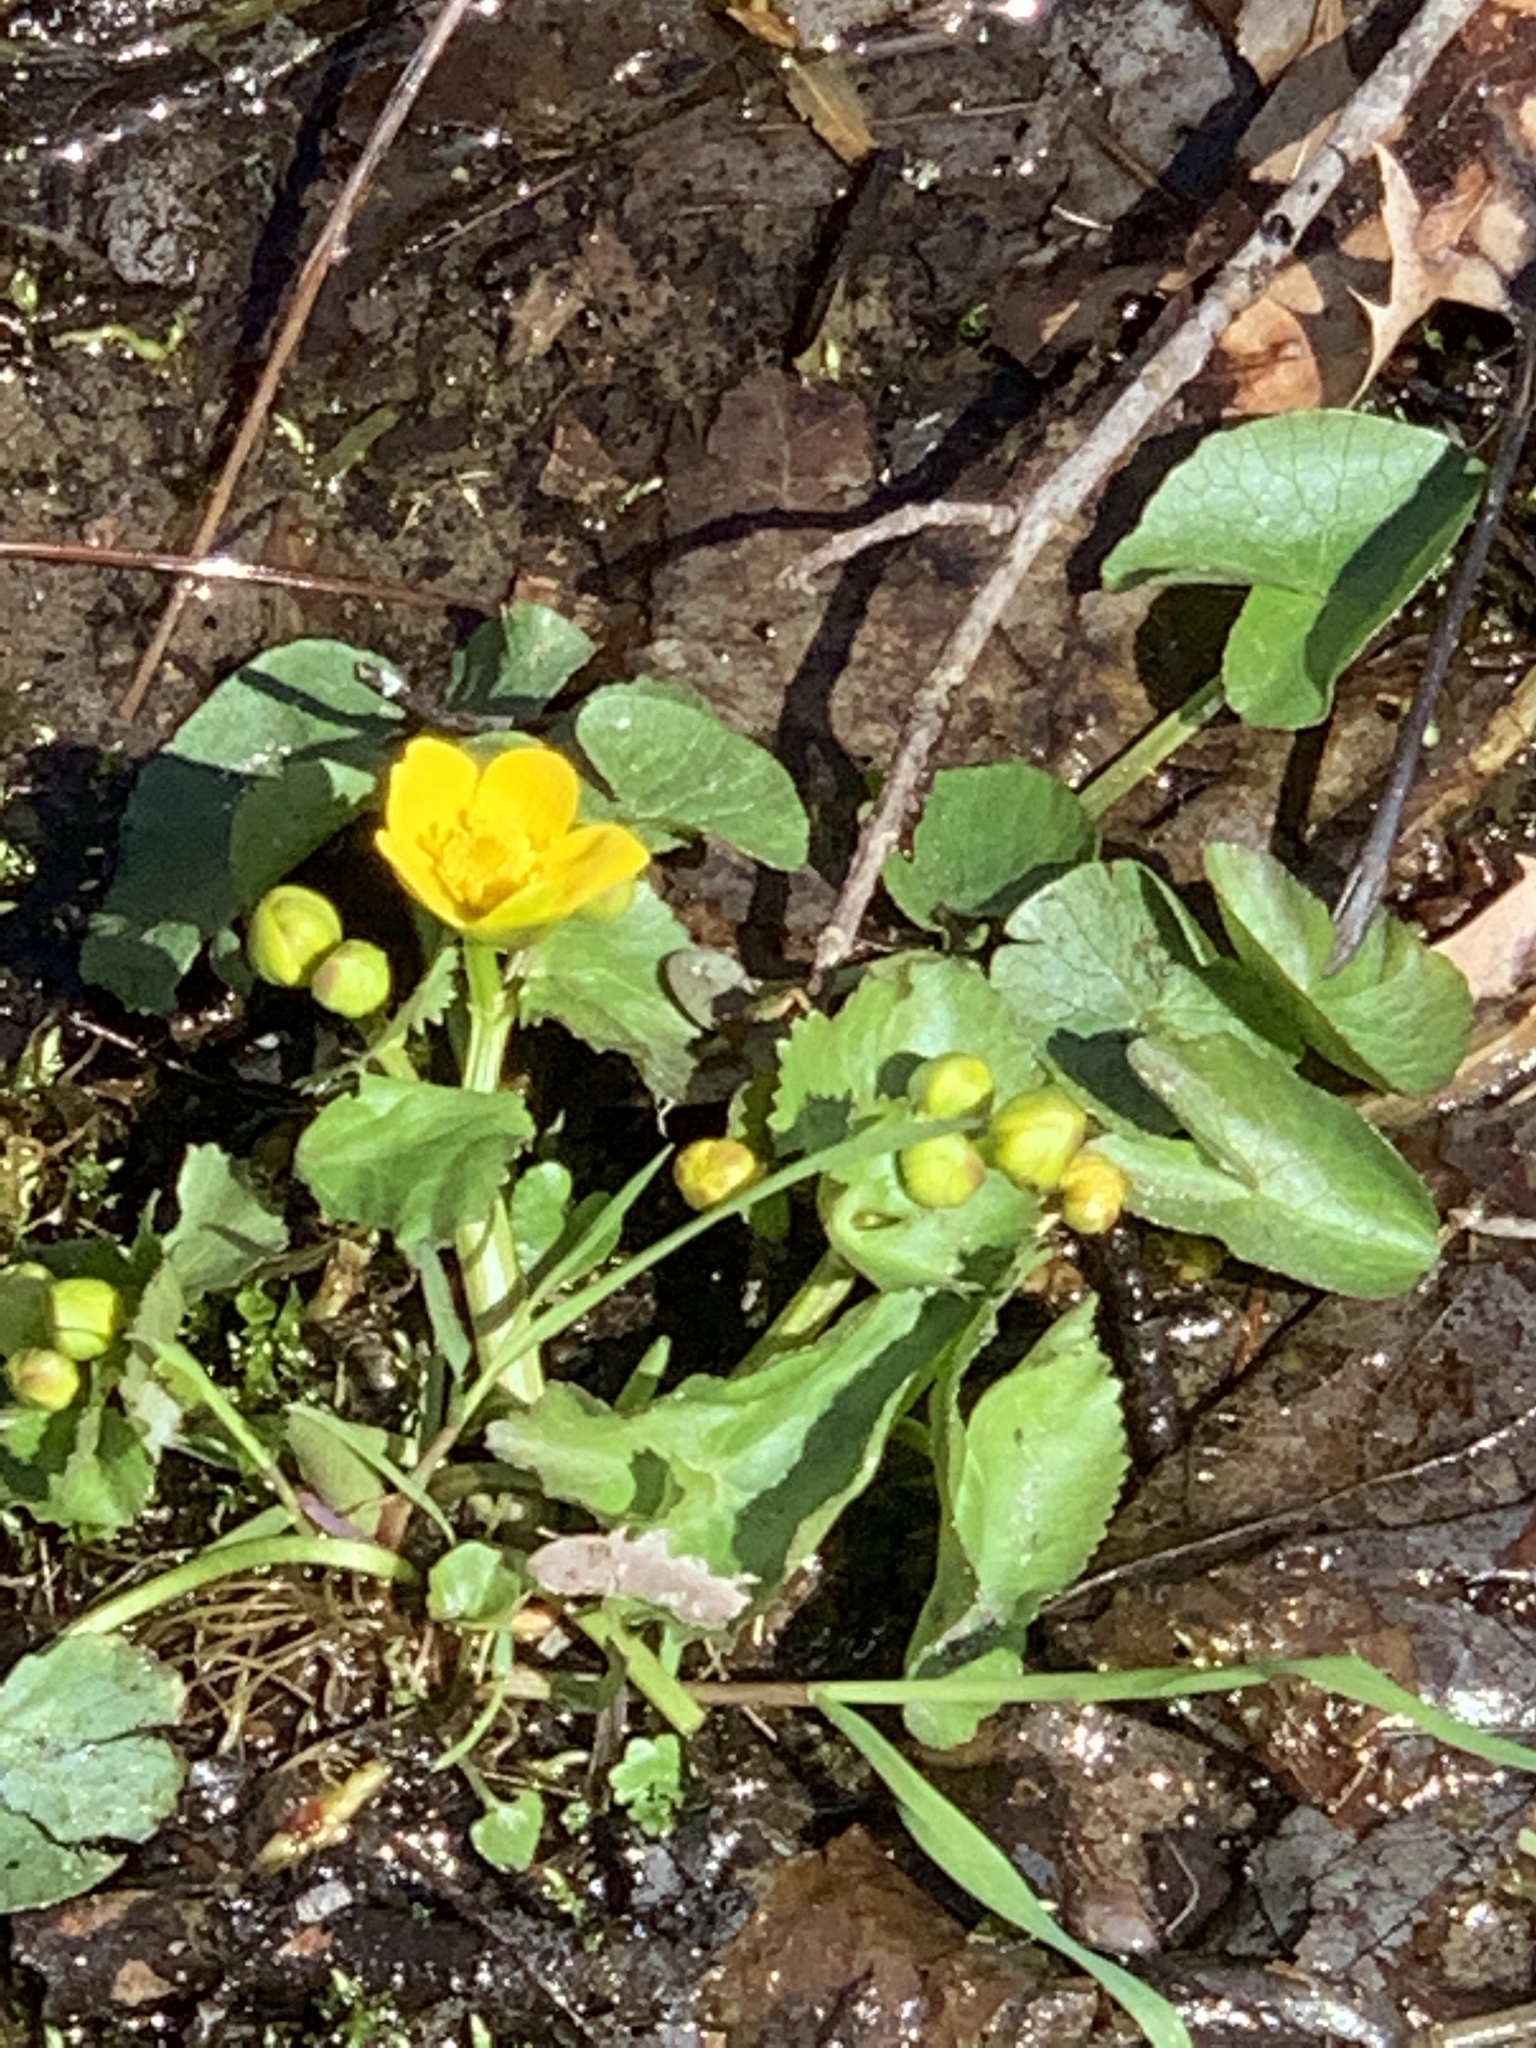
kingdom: Plantae
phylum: Tracheophyta
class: Magnoliopsida
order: Ranunculales
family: Ranunculaceae
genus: Caltha
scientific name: Caltha palustris
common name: Marsh marigold
